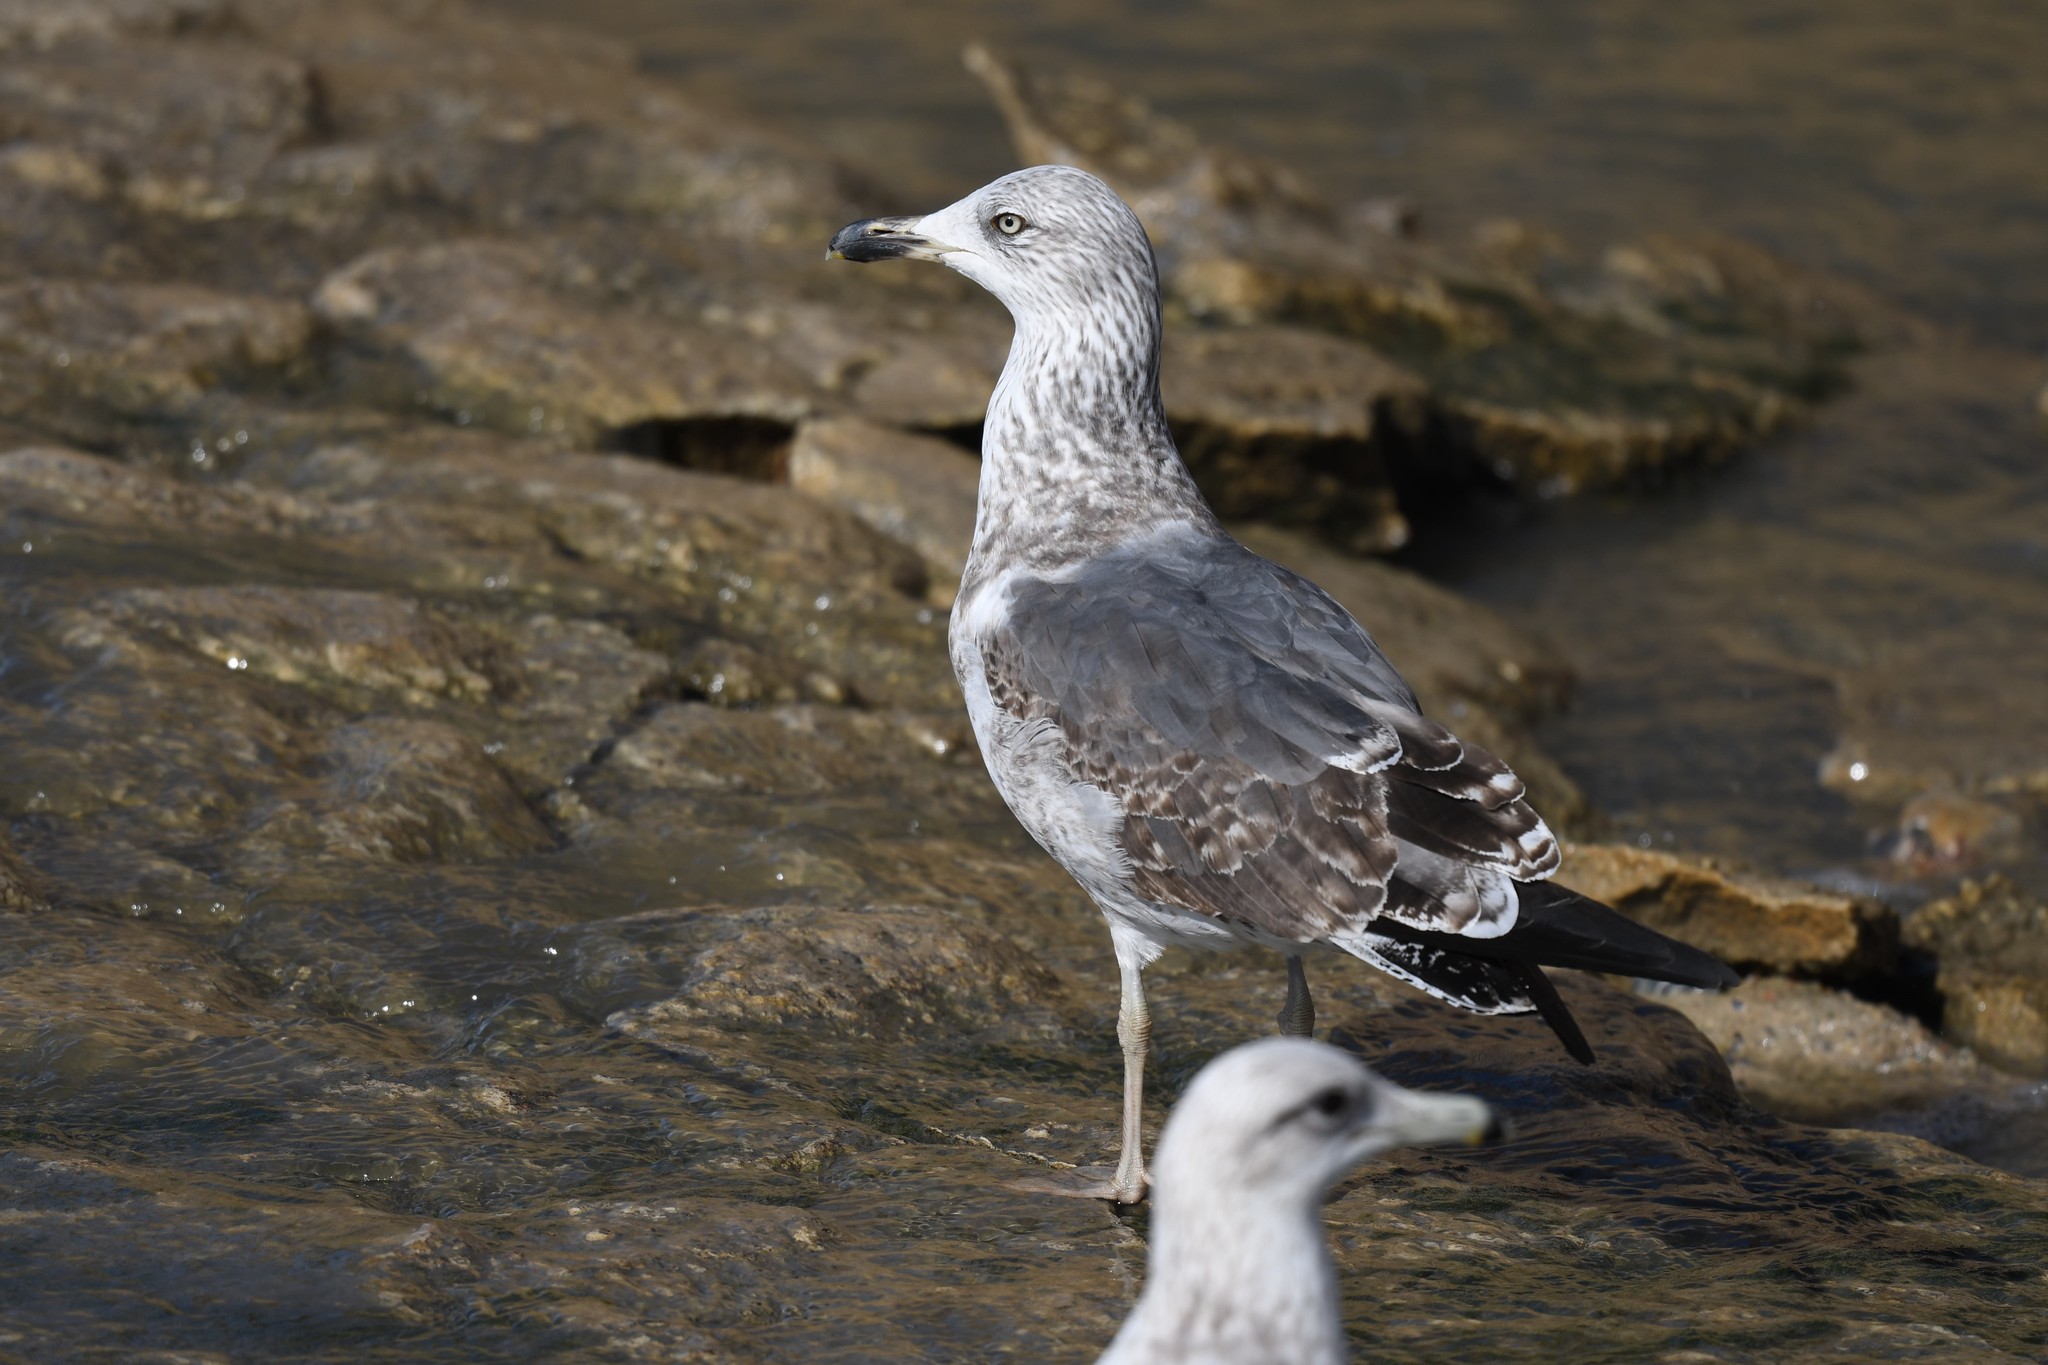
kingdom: Animalia
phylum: Chordata
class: Aves
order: Charadriiformes
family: Laridae
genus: Larus
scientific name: Larus fuscus
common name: Lesser black-backed gull
